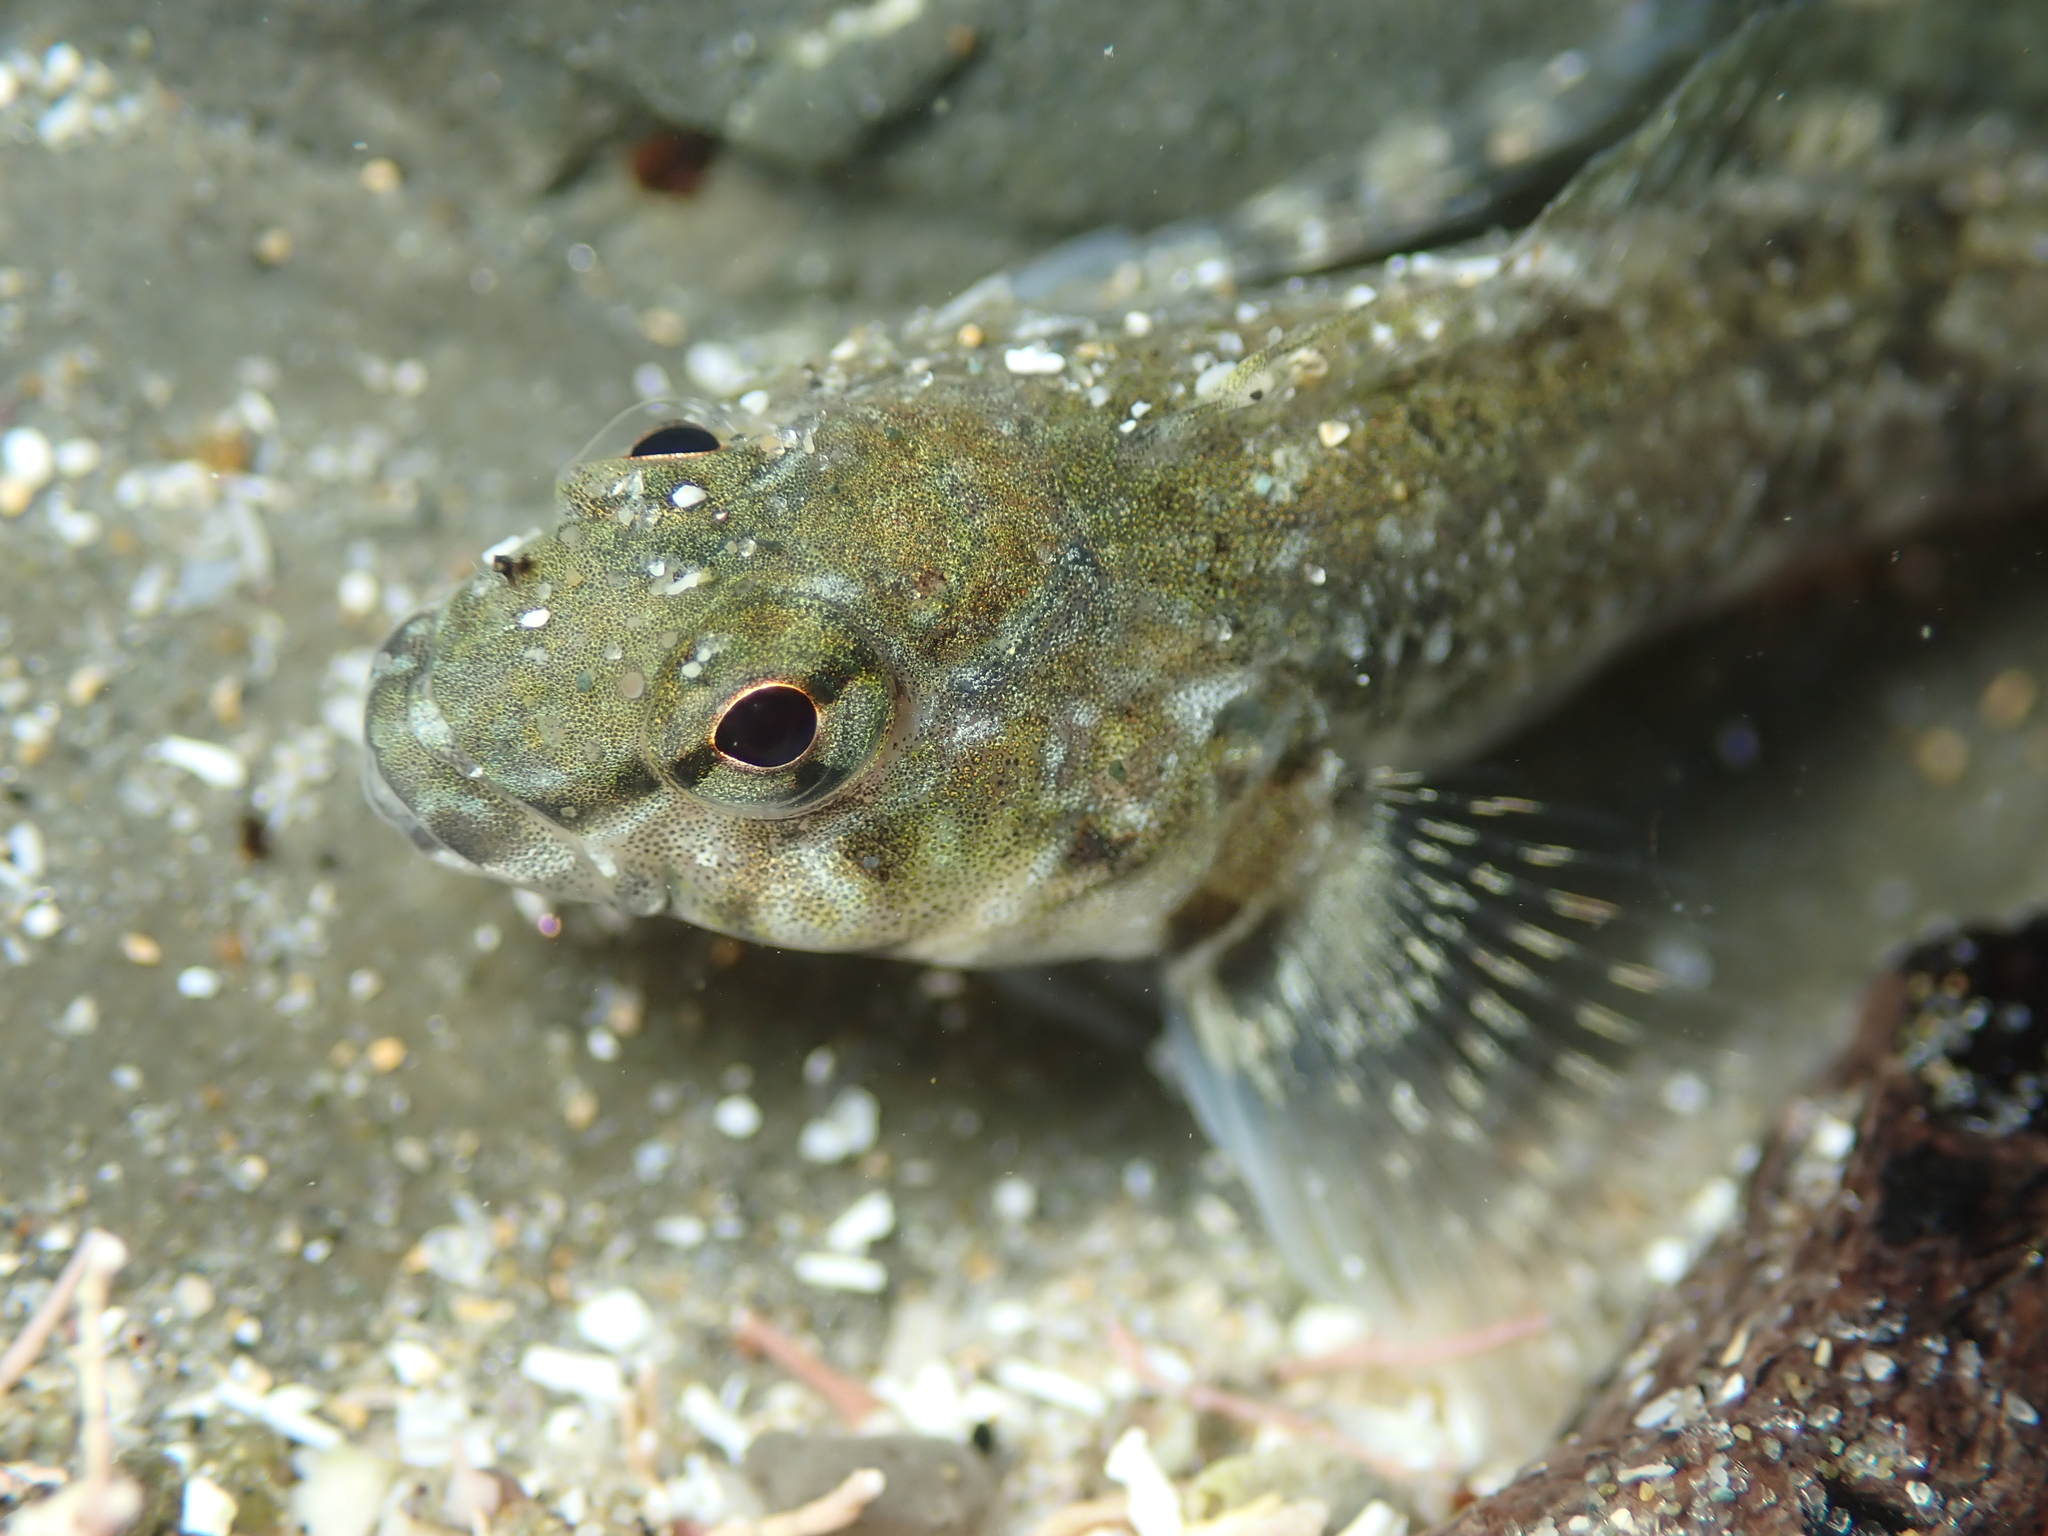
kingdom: Animalia
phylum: Chordata
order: Perciformes
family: Tripterygiidae
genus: Bellapiscis
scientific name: Bellapiscis medius
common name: Twister
